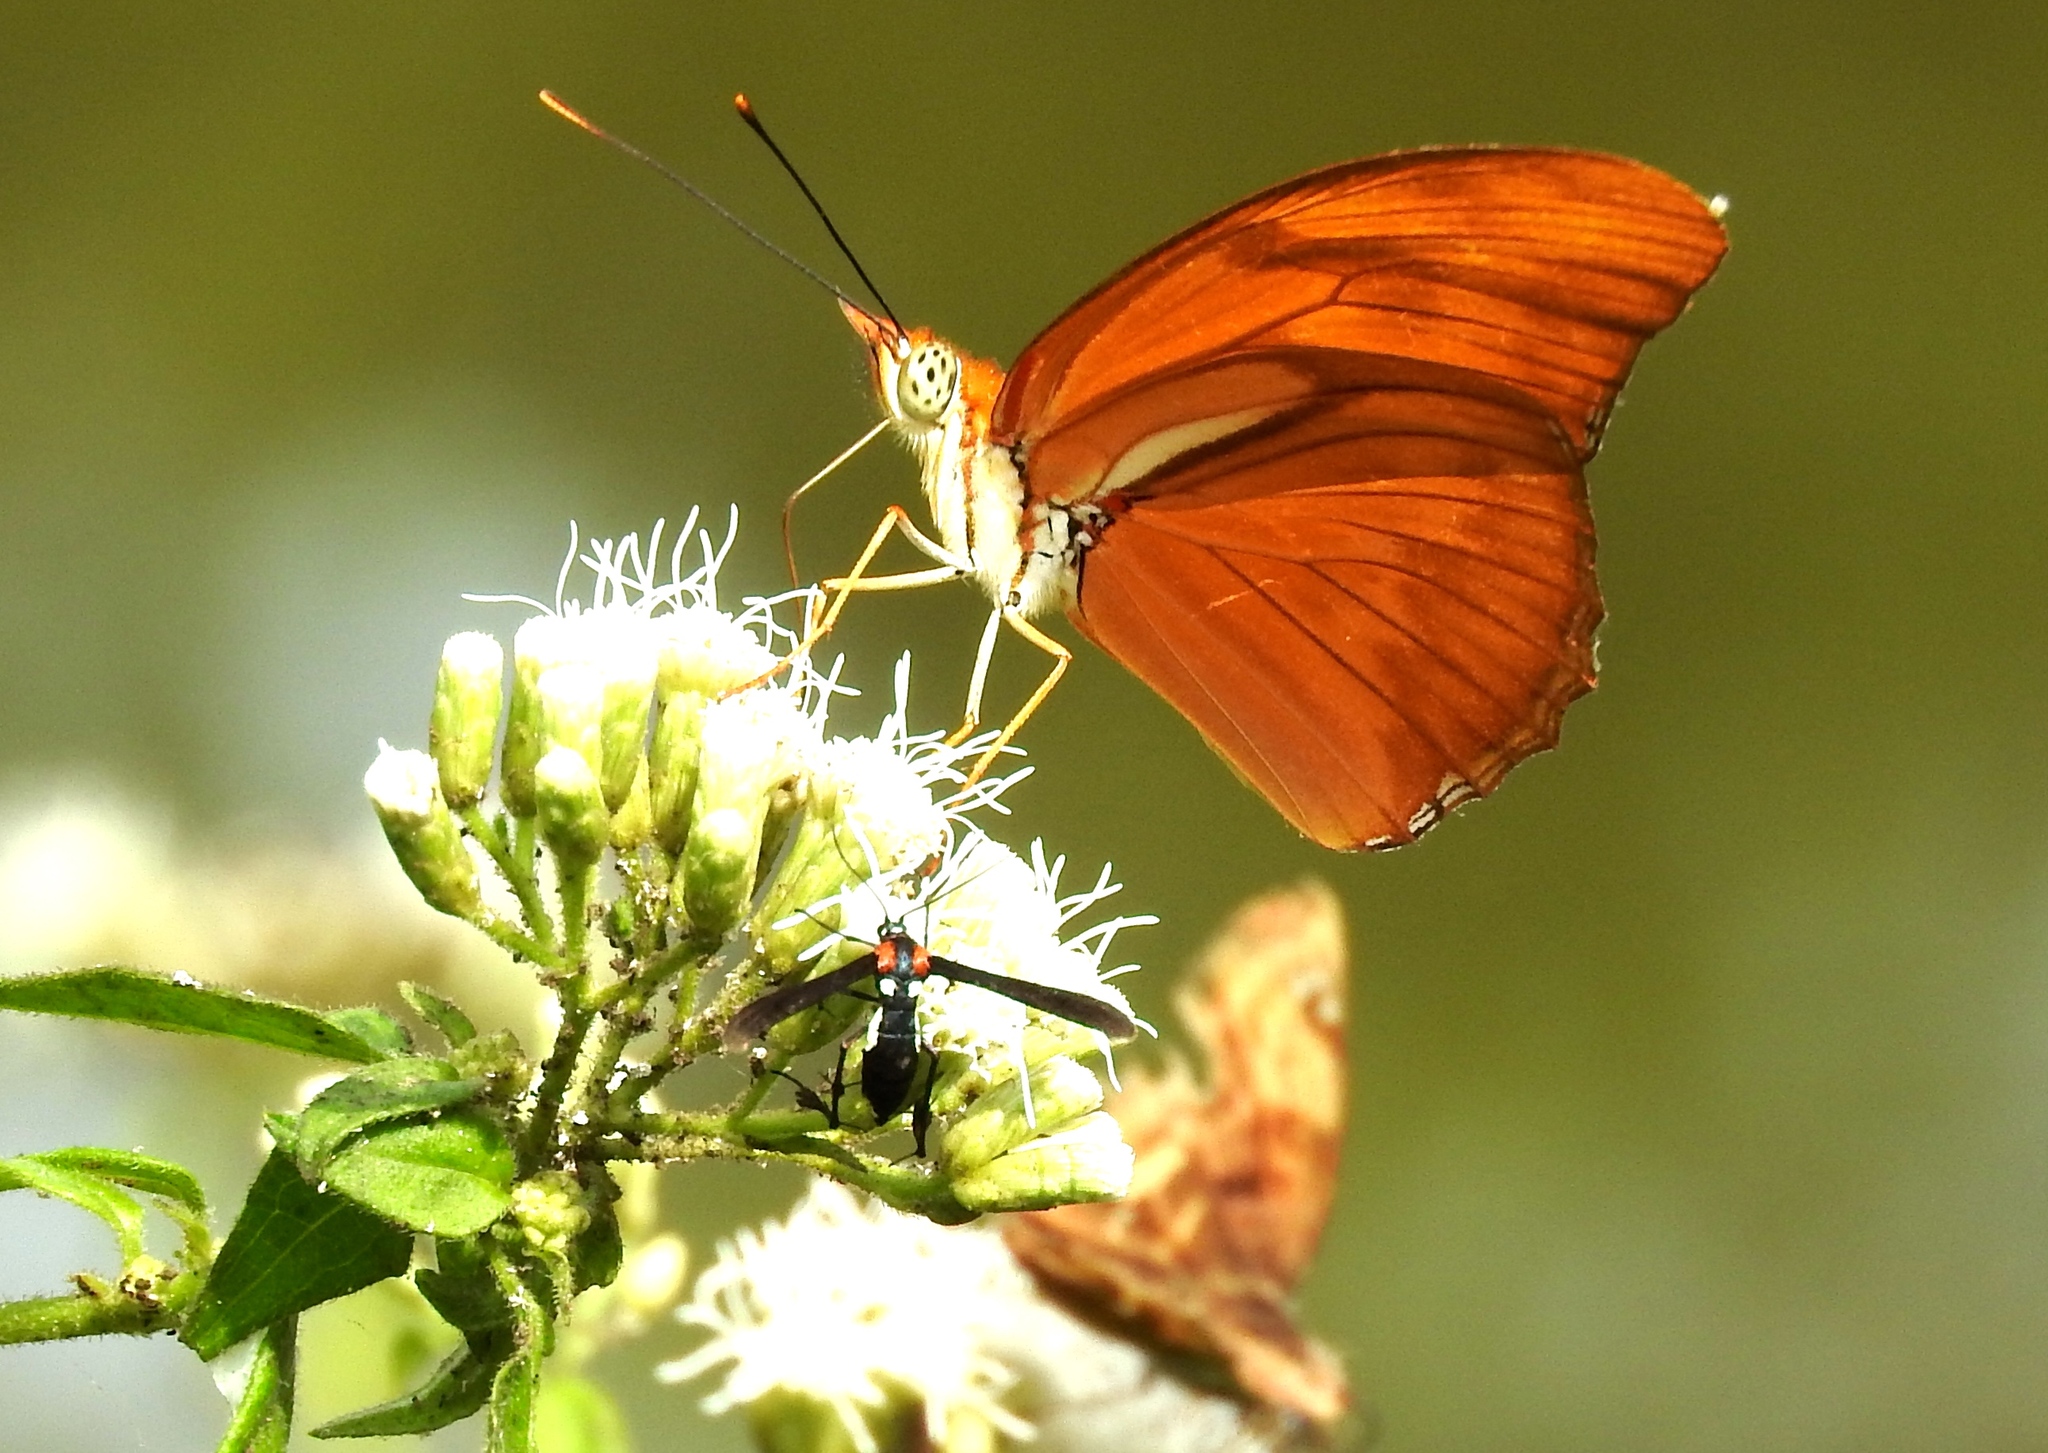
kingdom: Animalia
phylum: Arthropoda
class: Insecta
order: Lepidoptera
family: Nymphalidae
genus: Dryas
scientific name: Dryas iulia
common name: Flambeau
